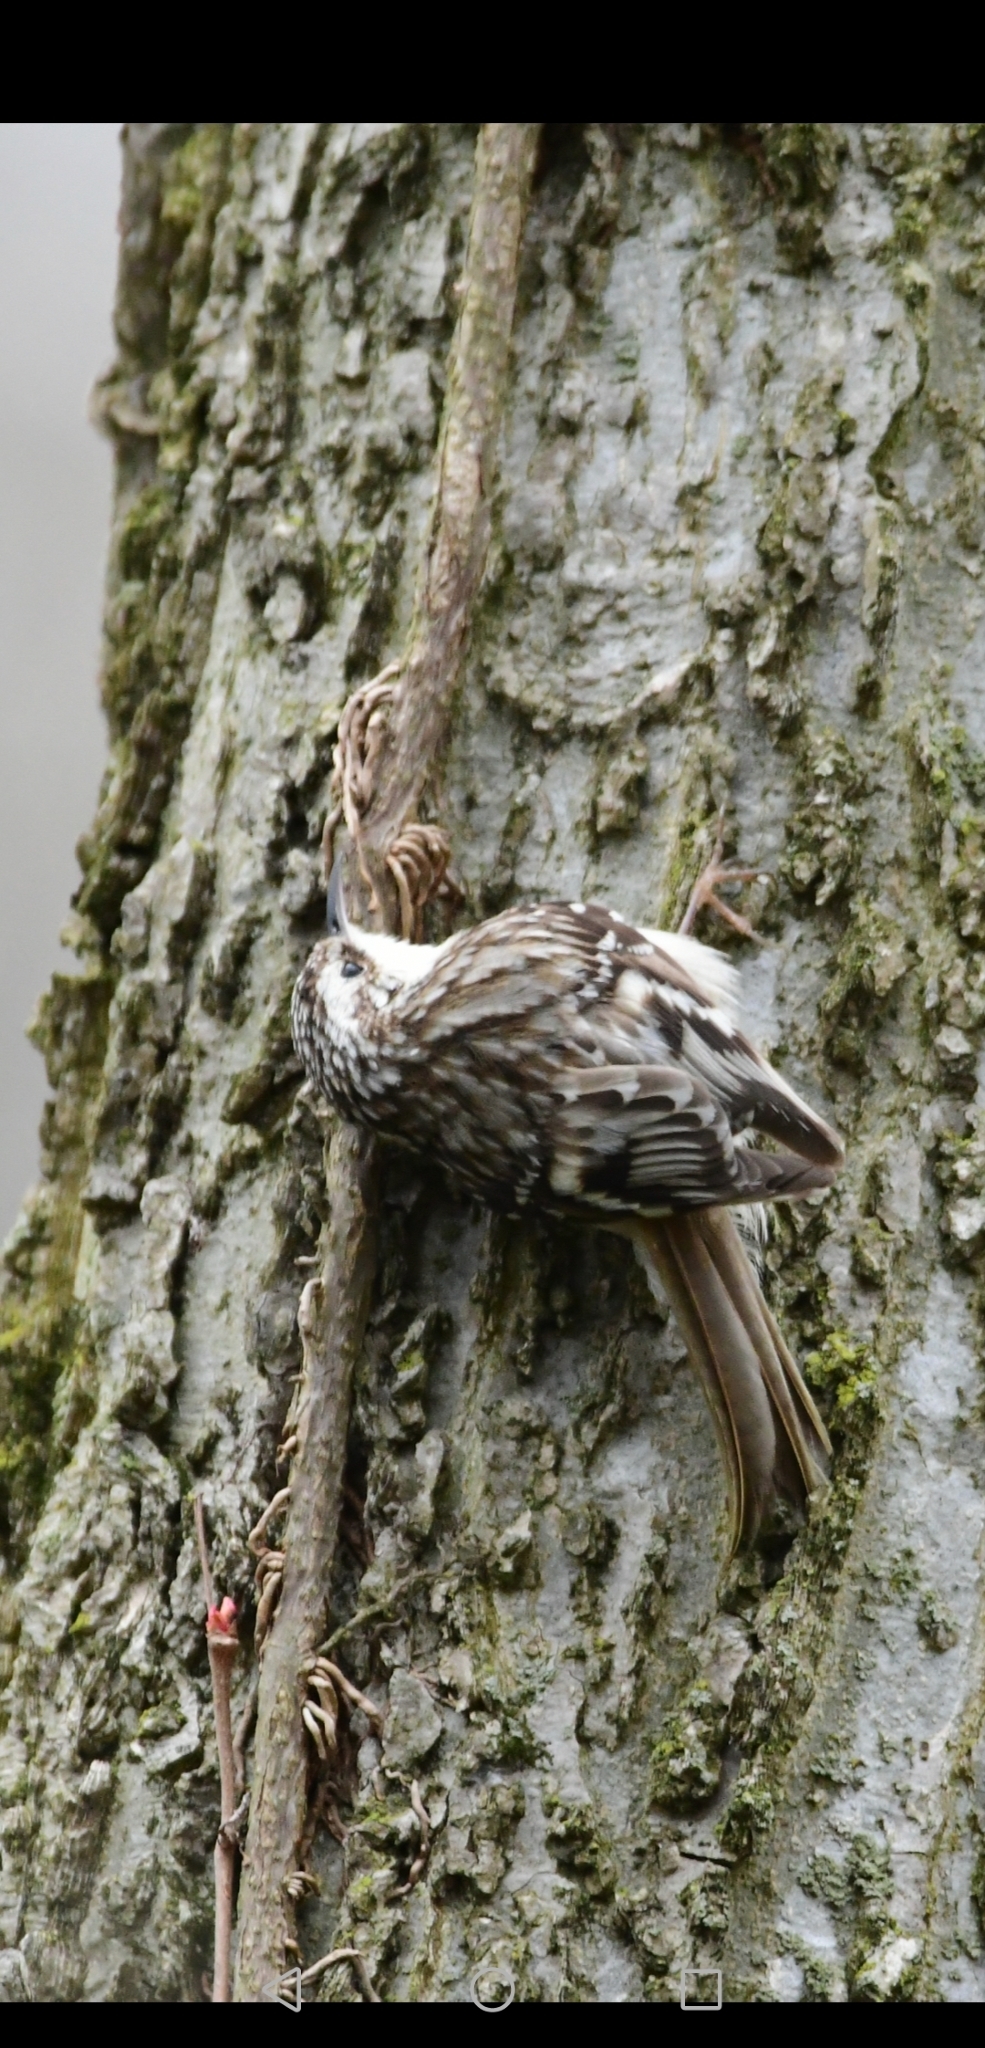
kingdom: Animalia
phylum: Chordata
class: Aves
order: Passeriformes
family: Certhiidae
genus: Certhia
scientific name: Certhia americana
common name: Brown creeper
